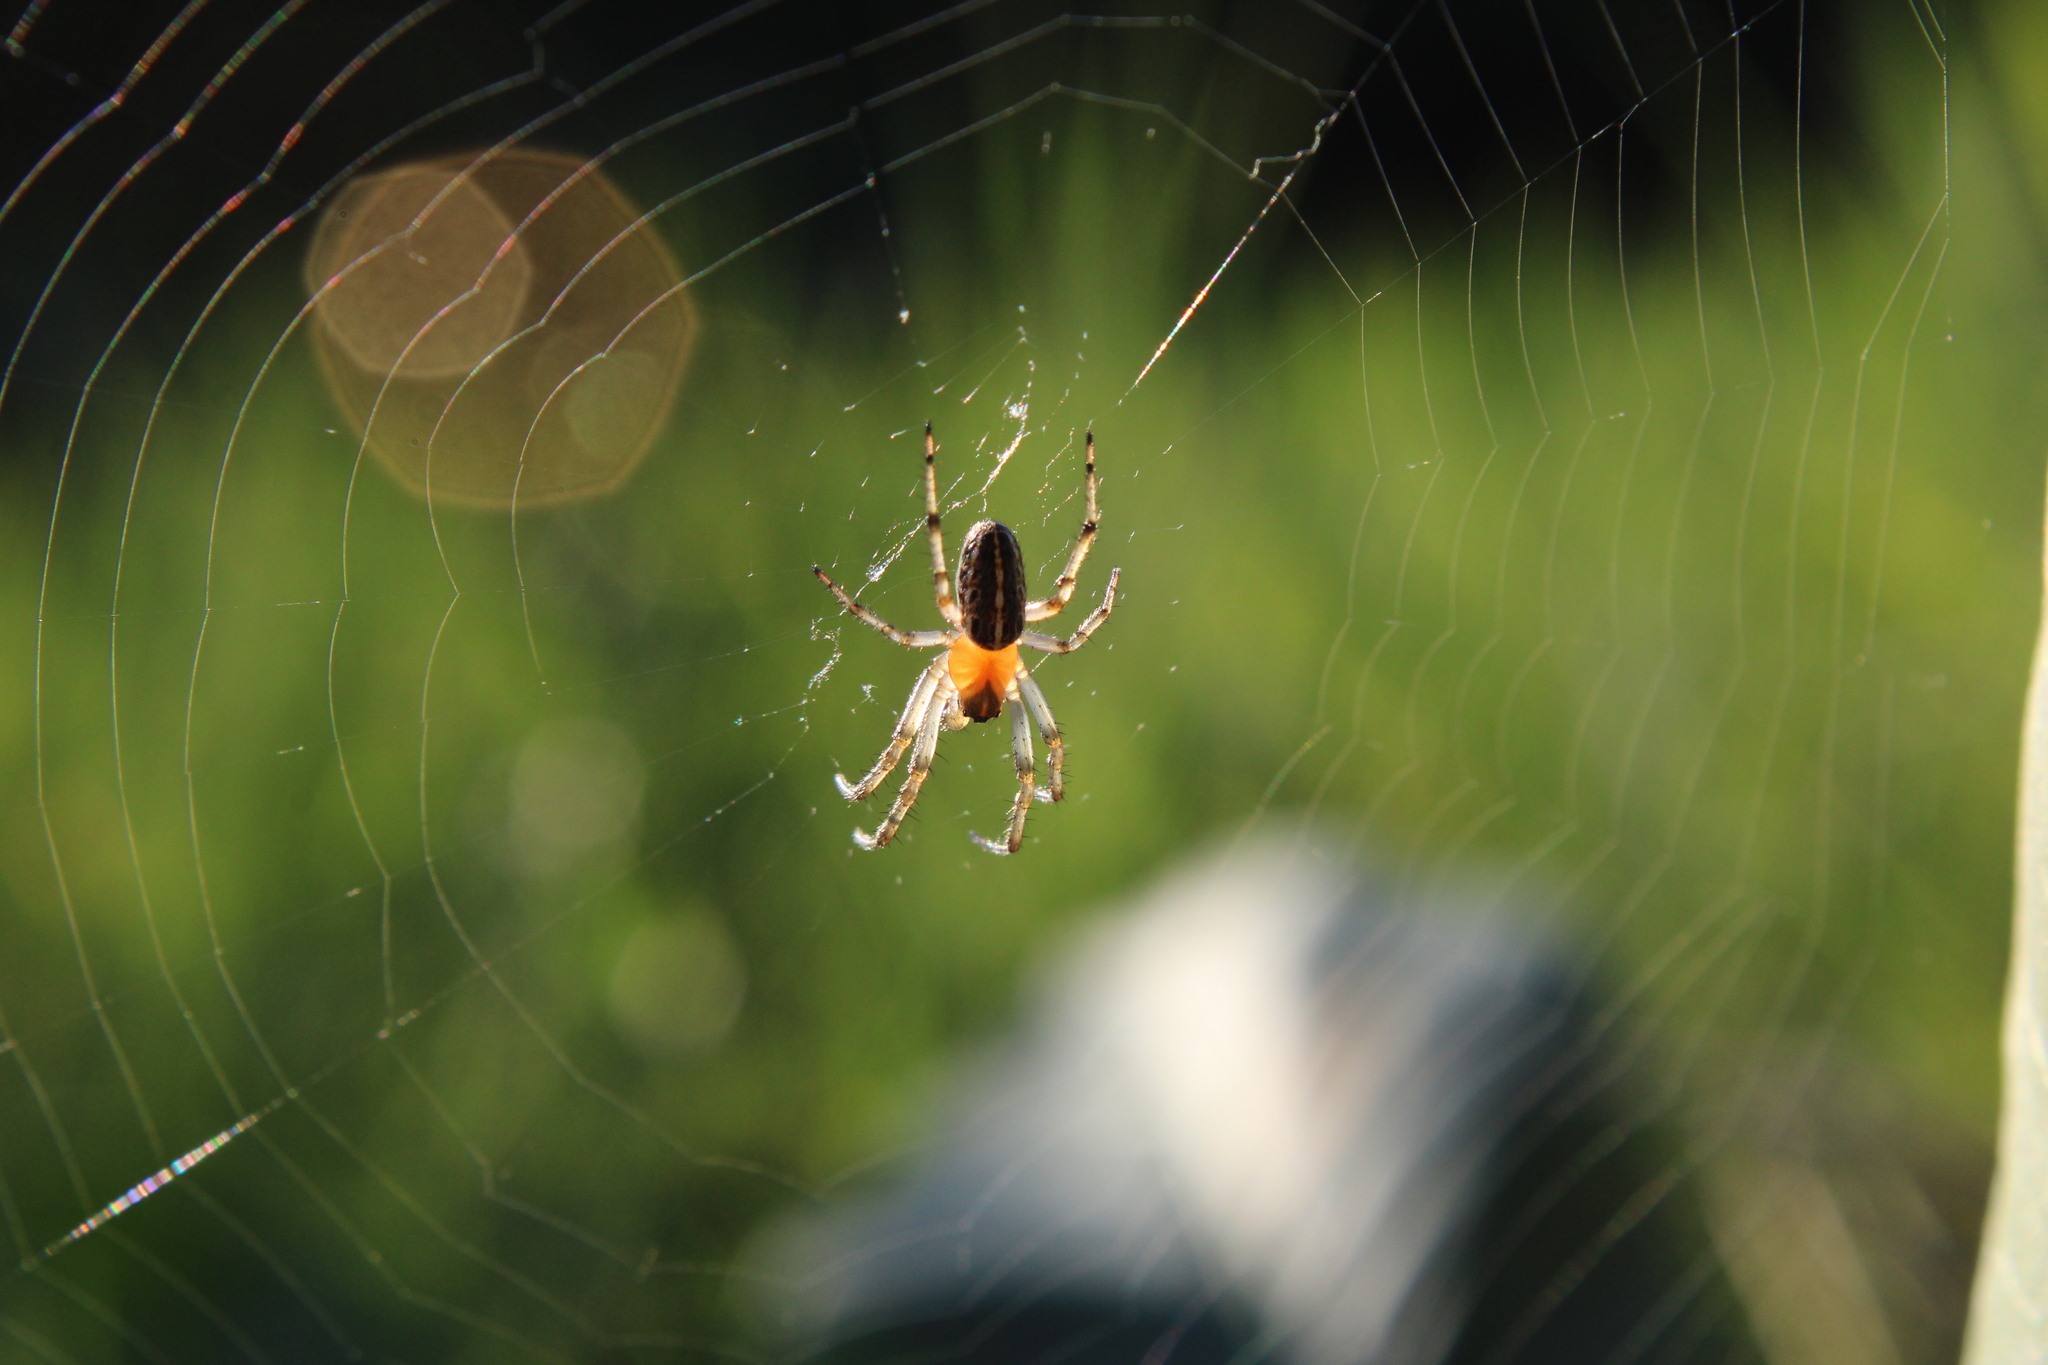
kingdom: Animalia
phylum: Arthropoda
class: Arachnida
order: Araneae
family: Araneidae
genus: Alpaida
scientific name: Alpaida veniliae
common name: Orb weavers
